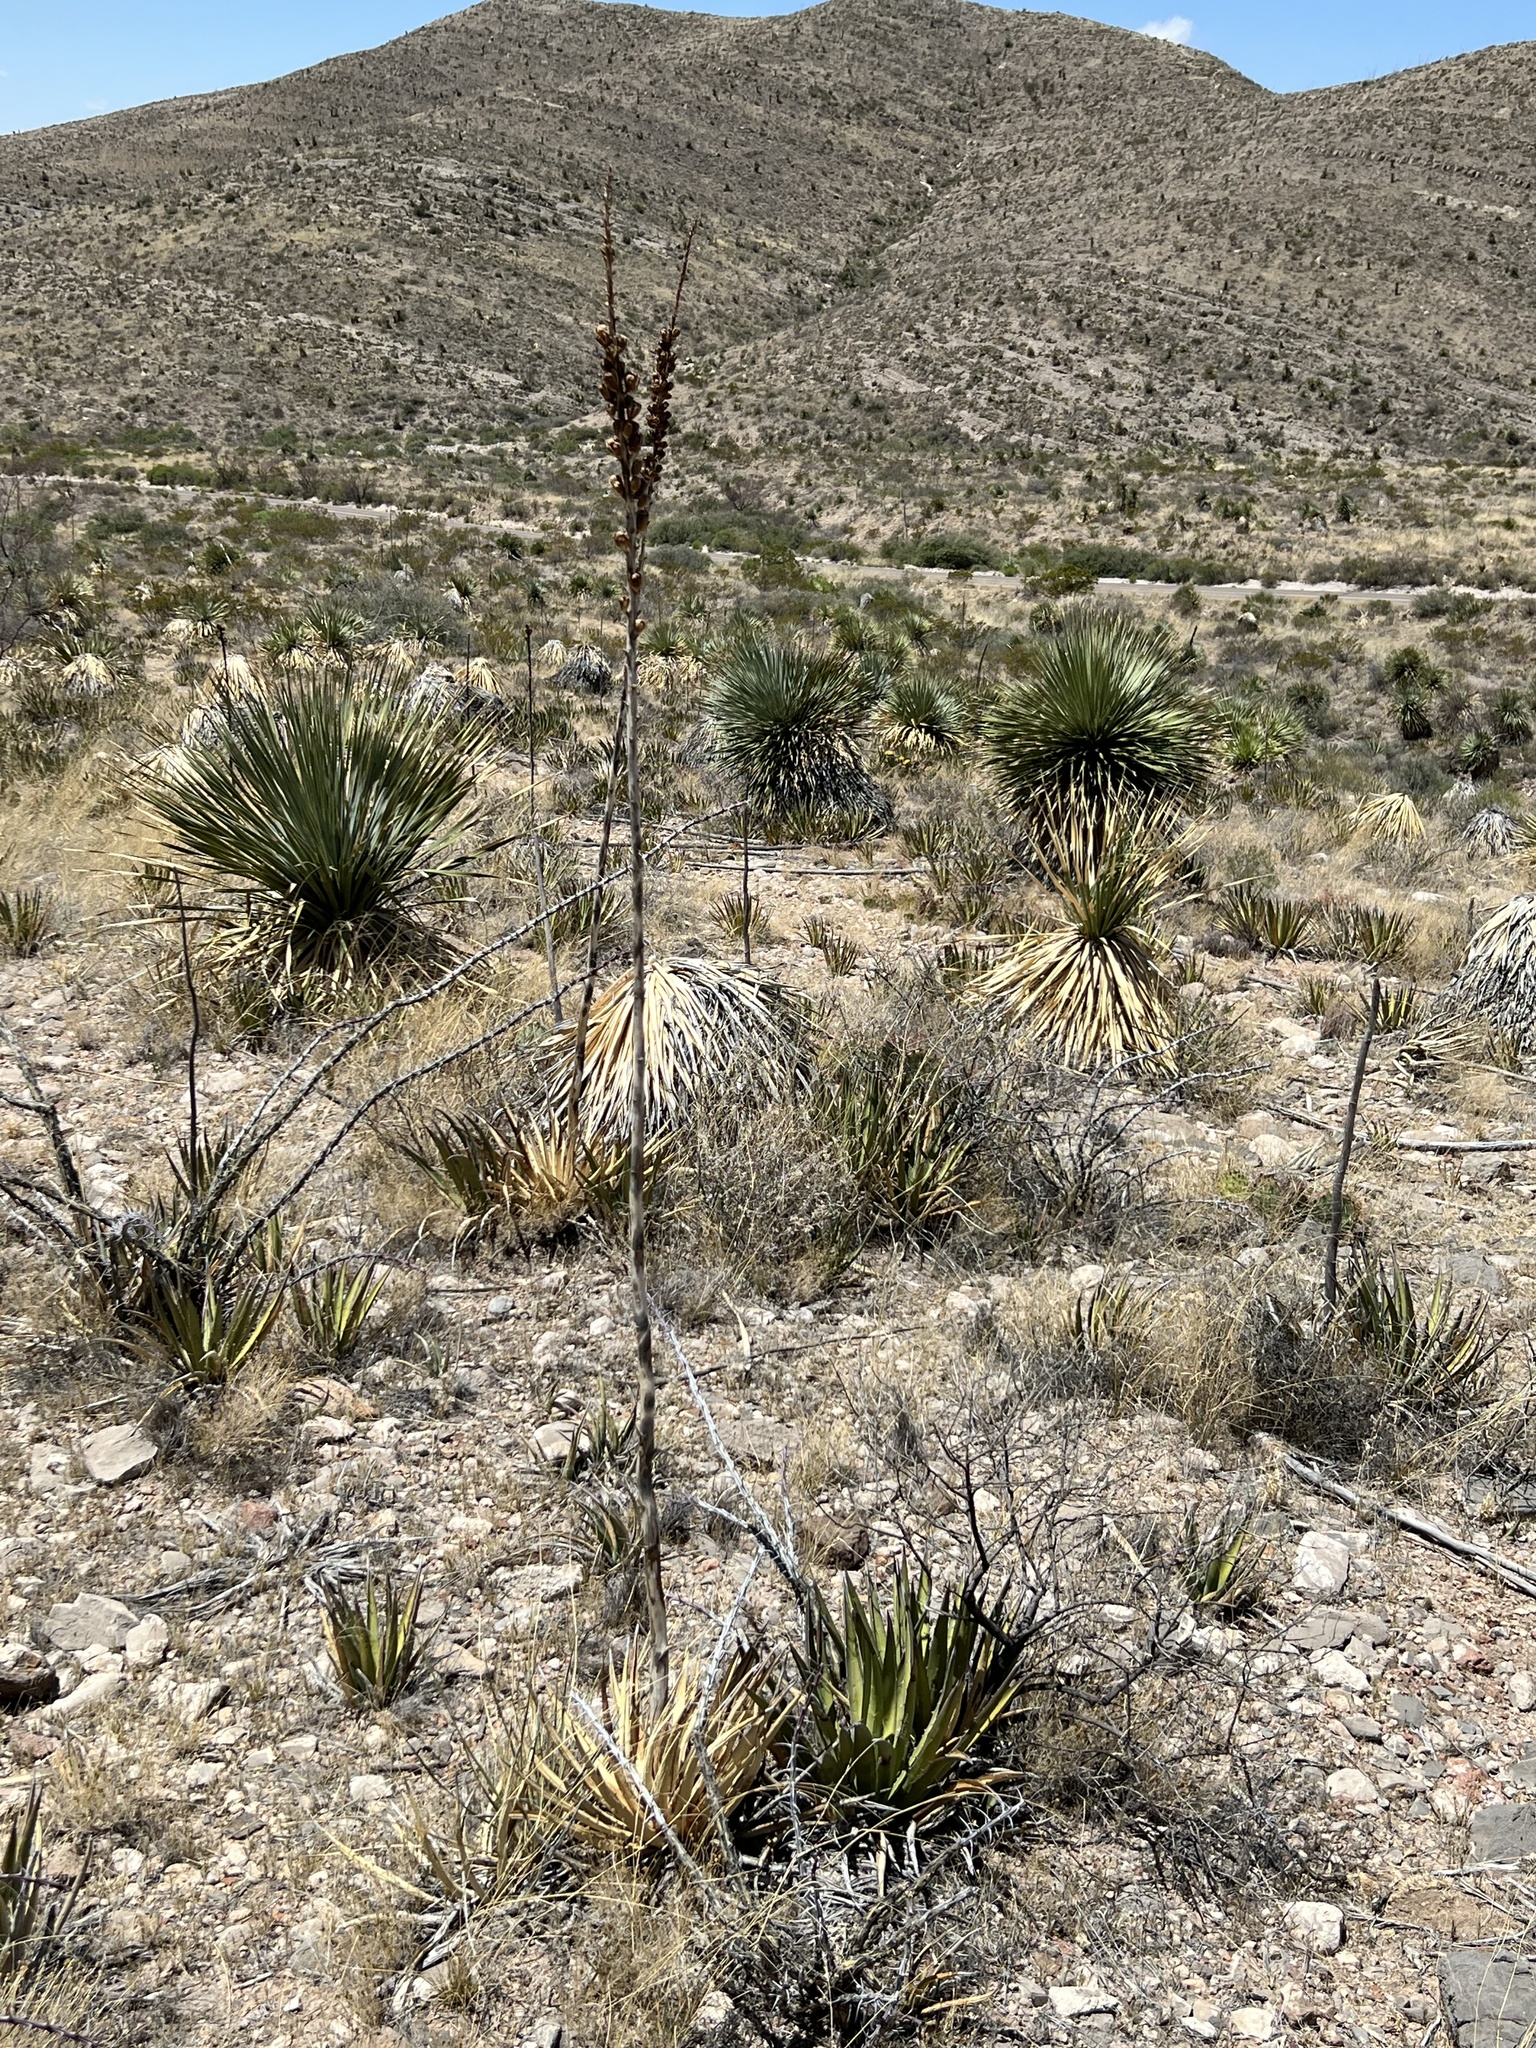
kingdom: Plantae
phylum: Tracheophyta
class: Liliopsida
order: Asparagales
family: Asparagaceae
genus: Agave
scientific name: Agave lechuguilla
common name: Lecheguilla agave
